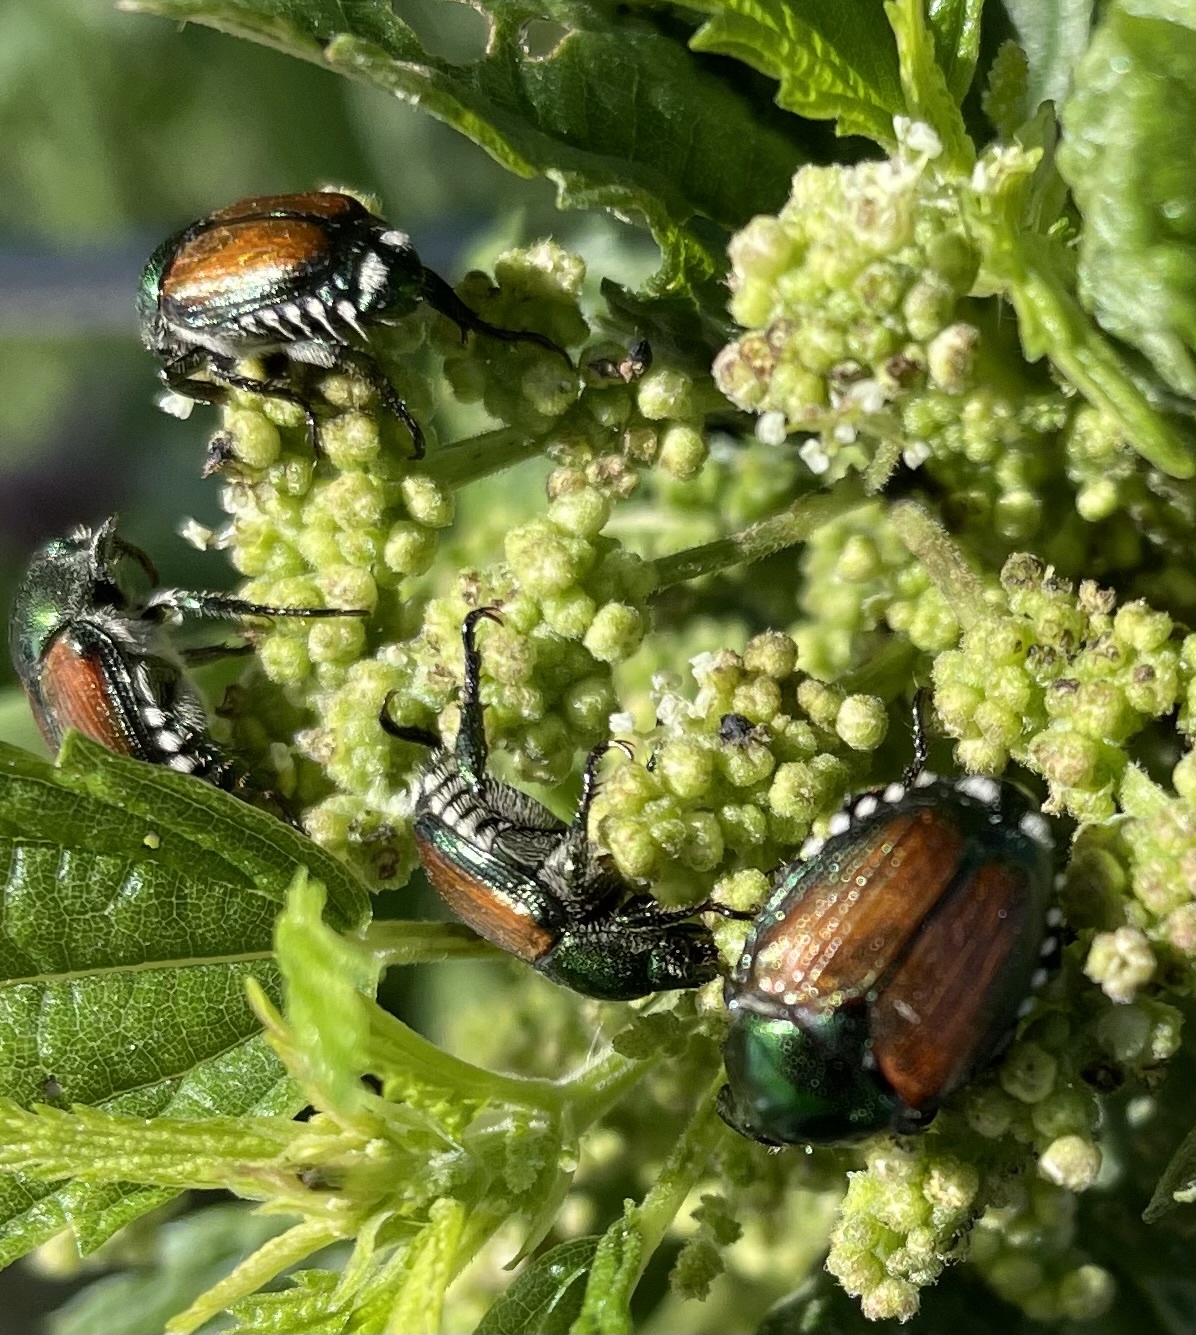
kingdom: Animalia
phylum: Arthropoda
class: Insecta
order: Coleoptera
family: Scarabaeidae
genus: Popillia
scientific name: Popillia japonica
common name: Japanese beetle
